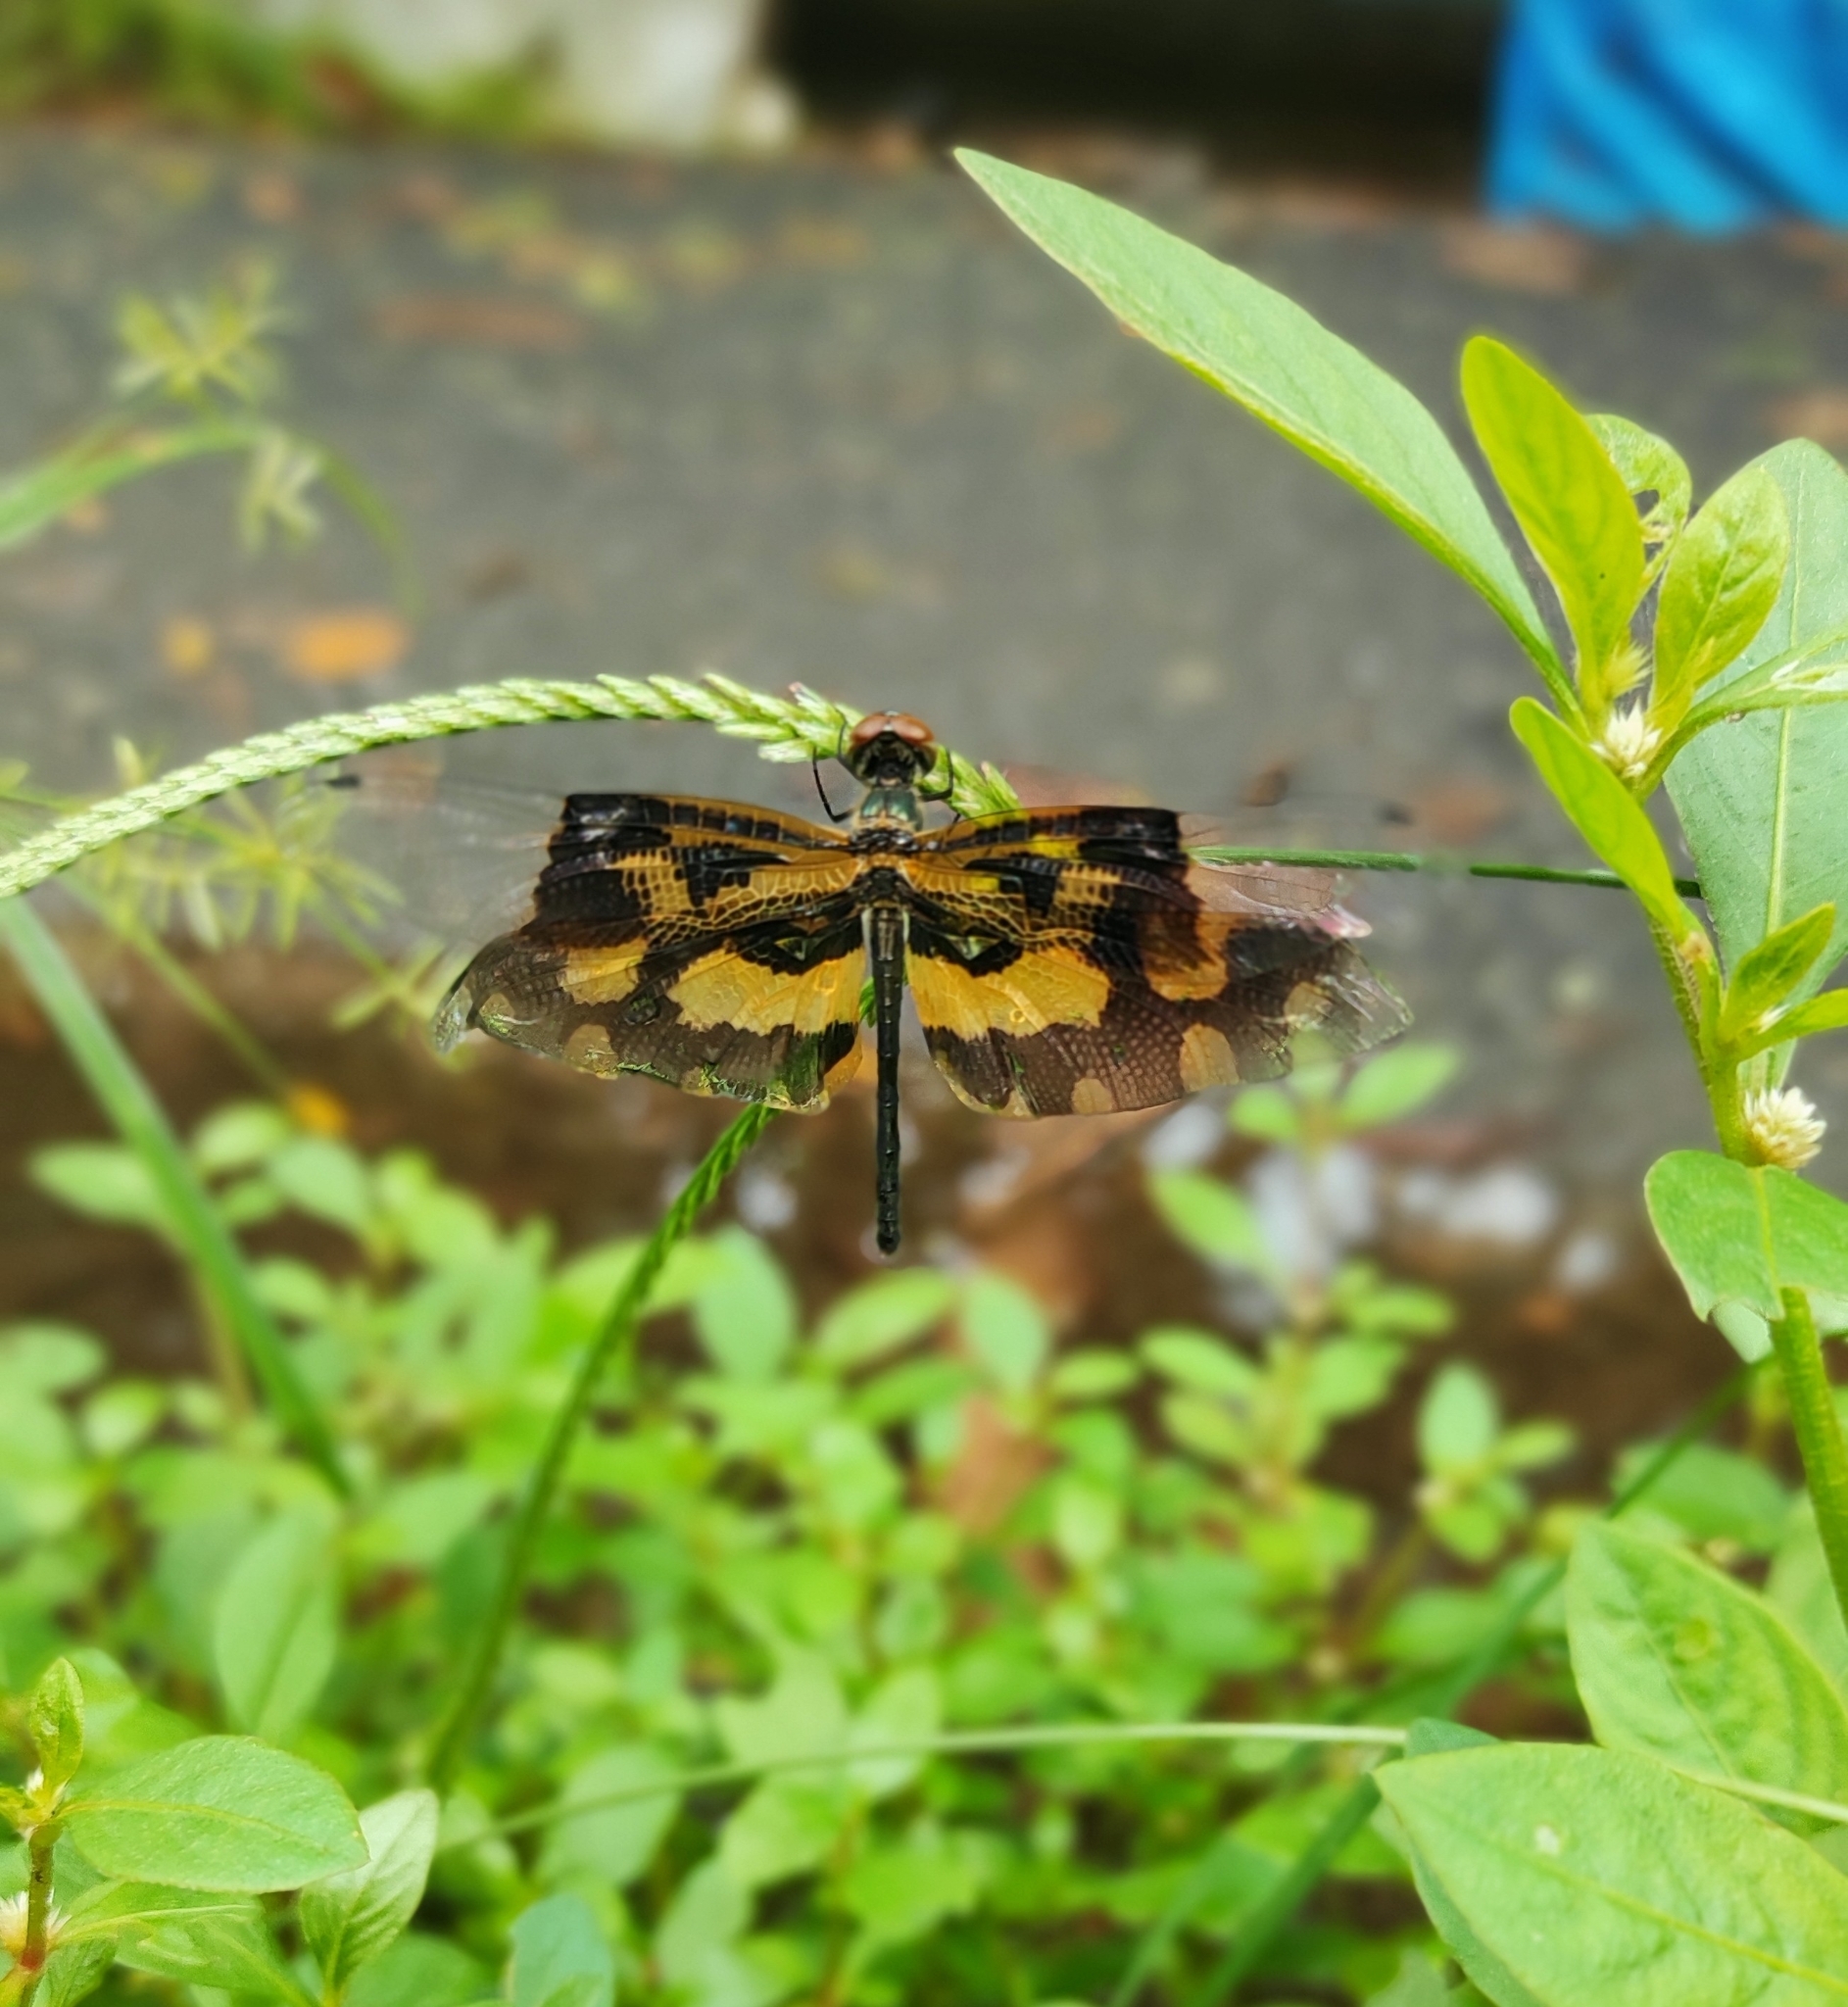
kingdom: Animalia
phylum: Arthropoda
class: Insecta
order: Odonata
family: Libellulidae
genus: Rhyothemis
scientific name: Rhyothemis variegata
